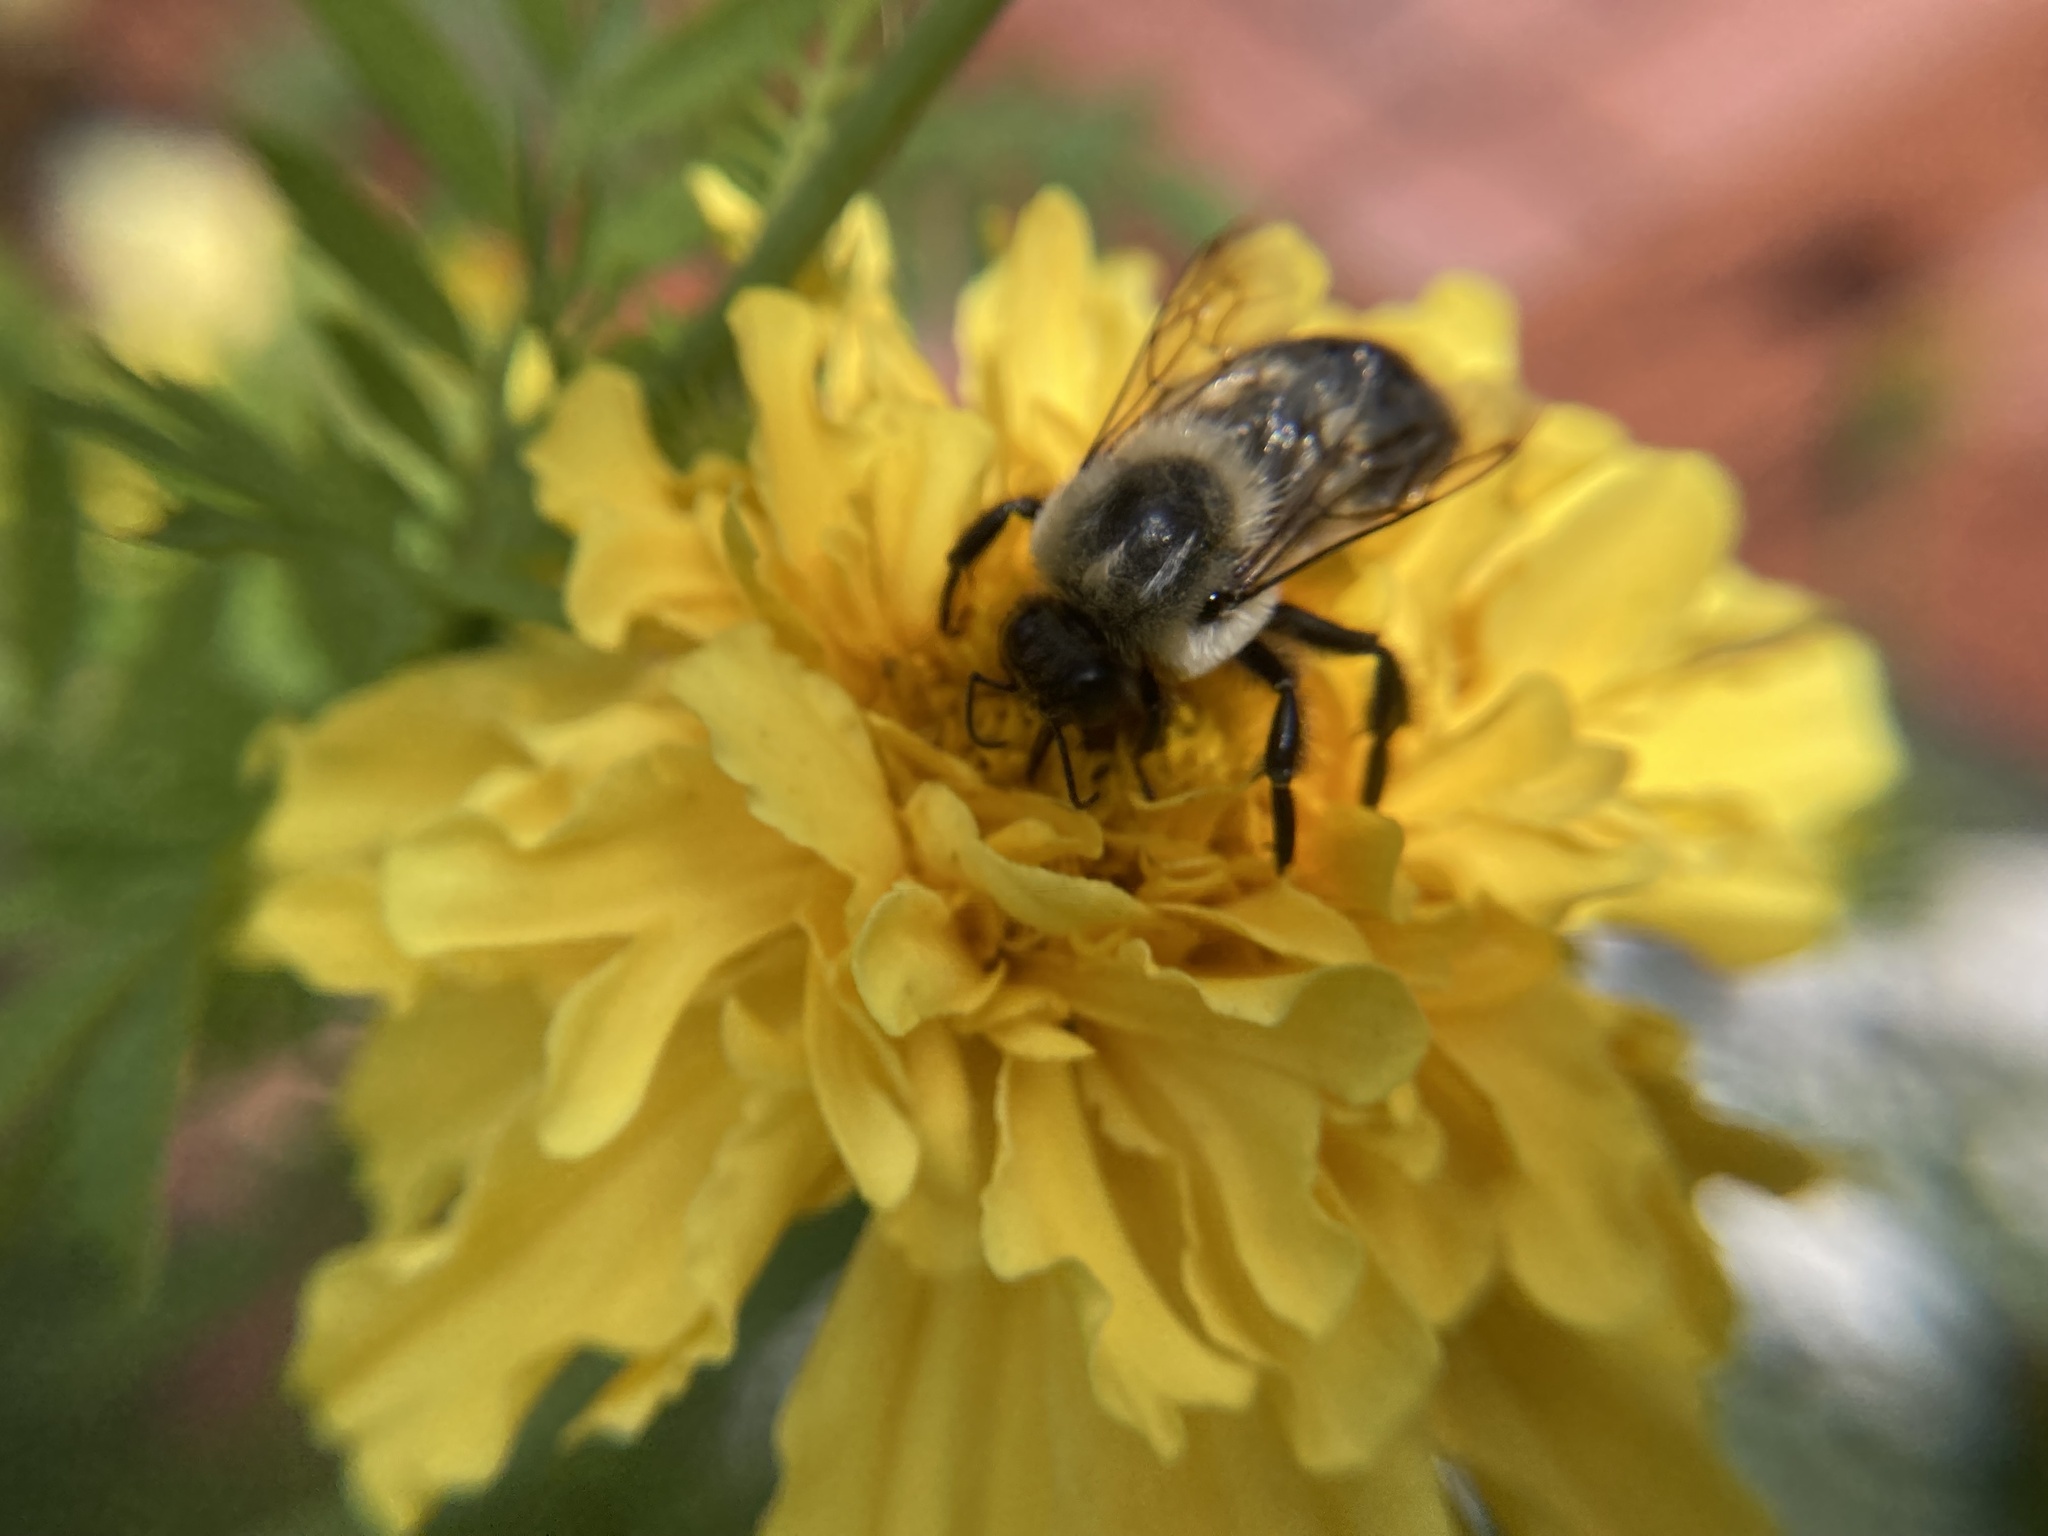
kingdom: Animalia
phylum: Arthropoda
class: Insecta
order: Hymenoptera
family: Apidae
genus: Bombus
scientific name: Bombus griseocollis
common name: Brown-belted bumble bee
